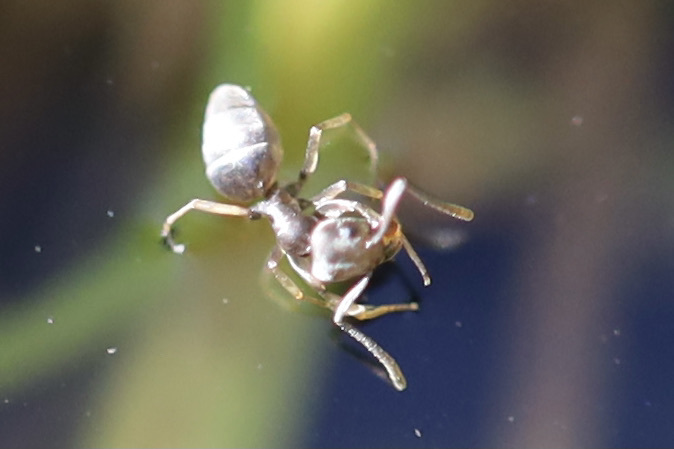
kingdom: Animalia
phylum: Arthropoda
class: Insecta
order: Hymenoptera
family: Formicidae
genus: Tapinoma
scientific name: Tapinoma sessile
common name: Odorous house ant
